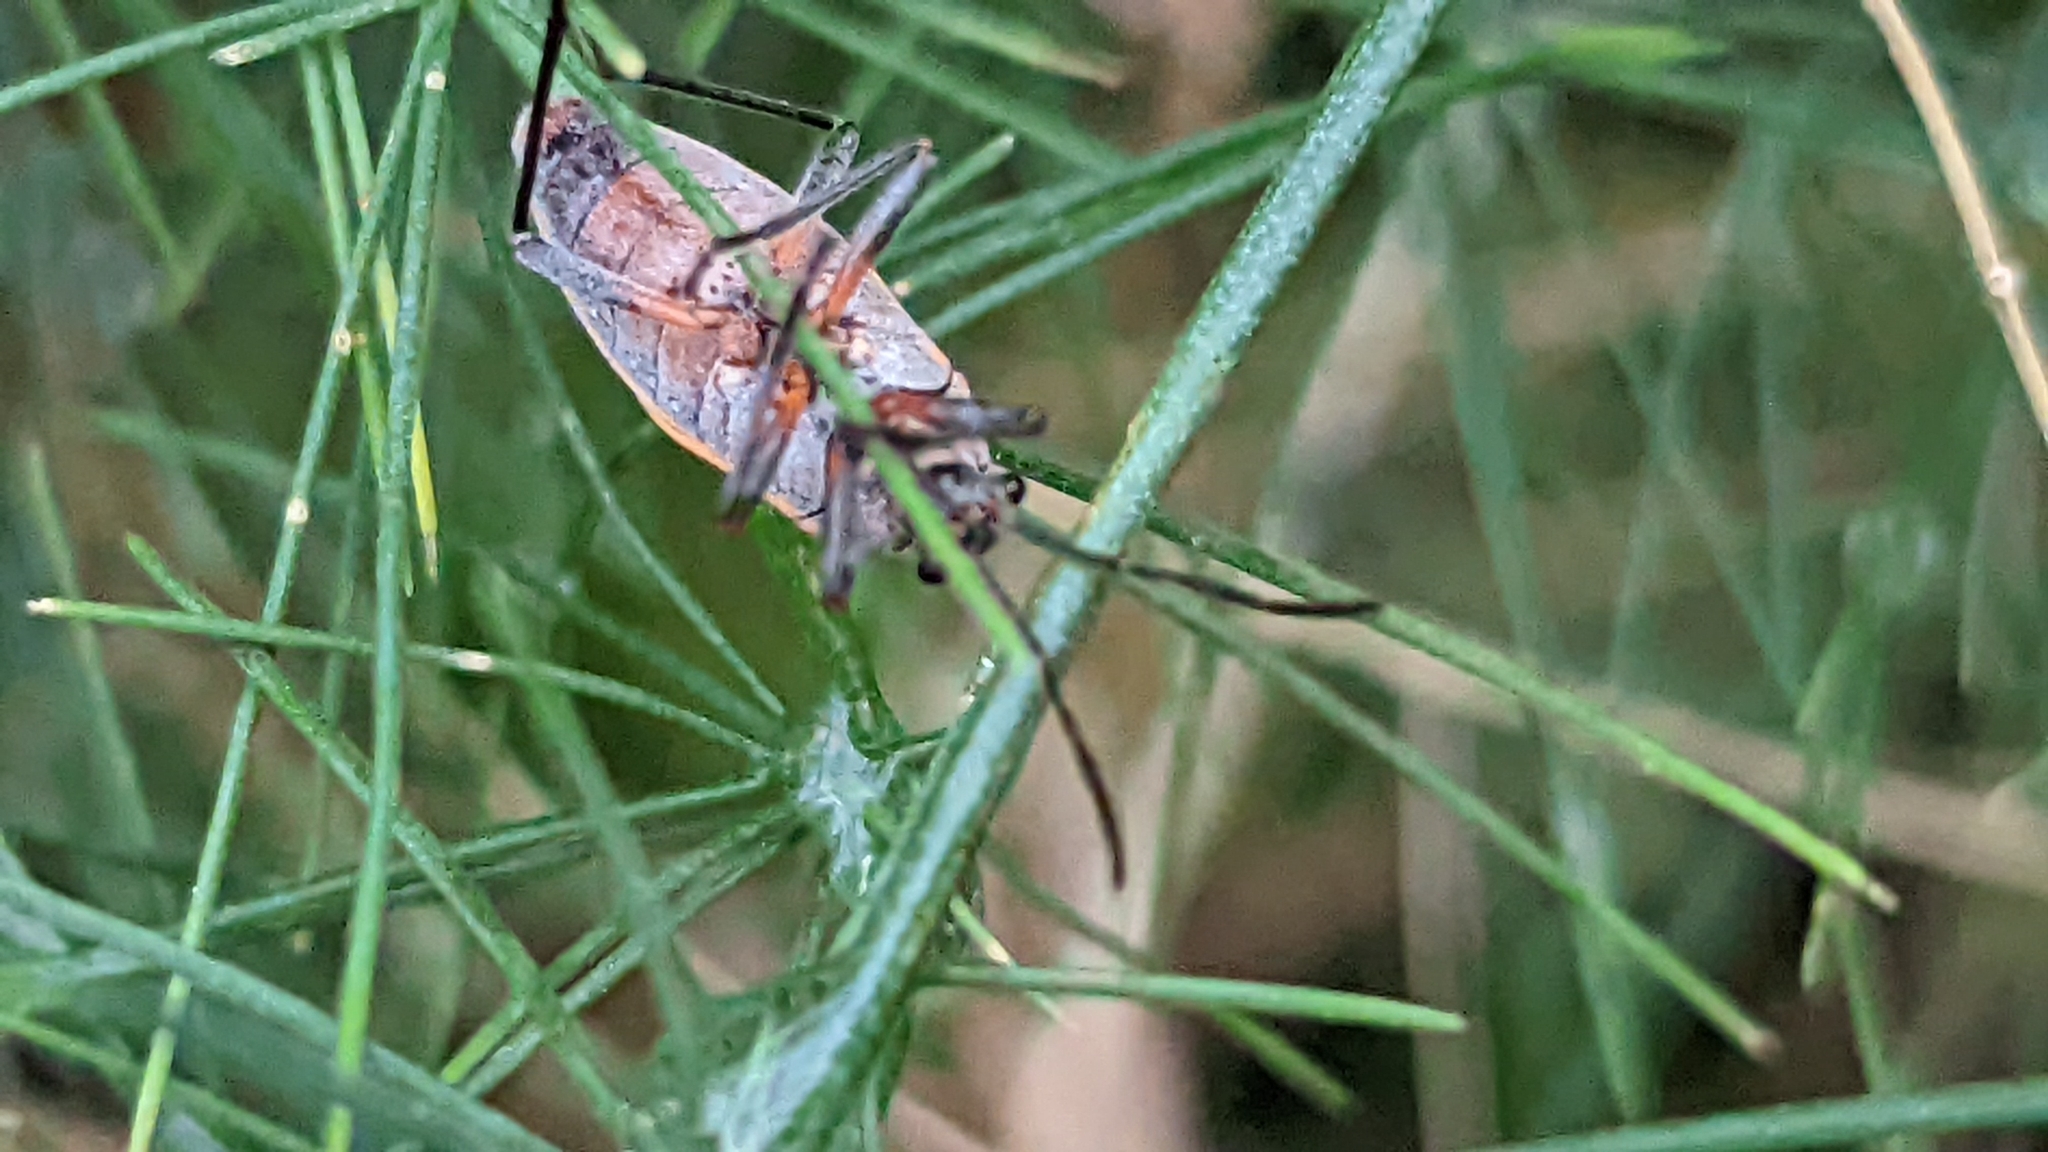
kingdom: Animalia
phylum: Arthropoda
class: Insecta
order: Hemiptera
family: Largidae
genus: Largus
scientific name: Largus maculatus
